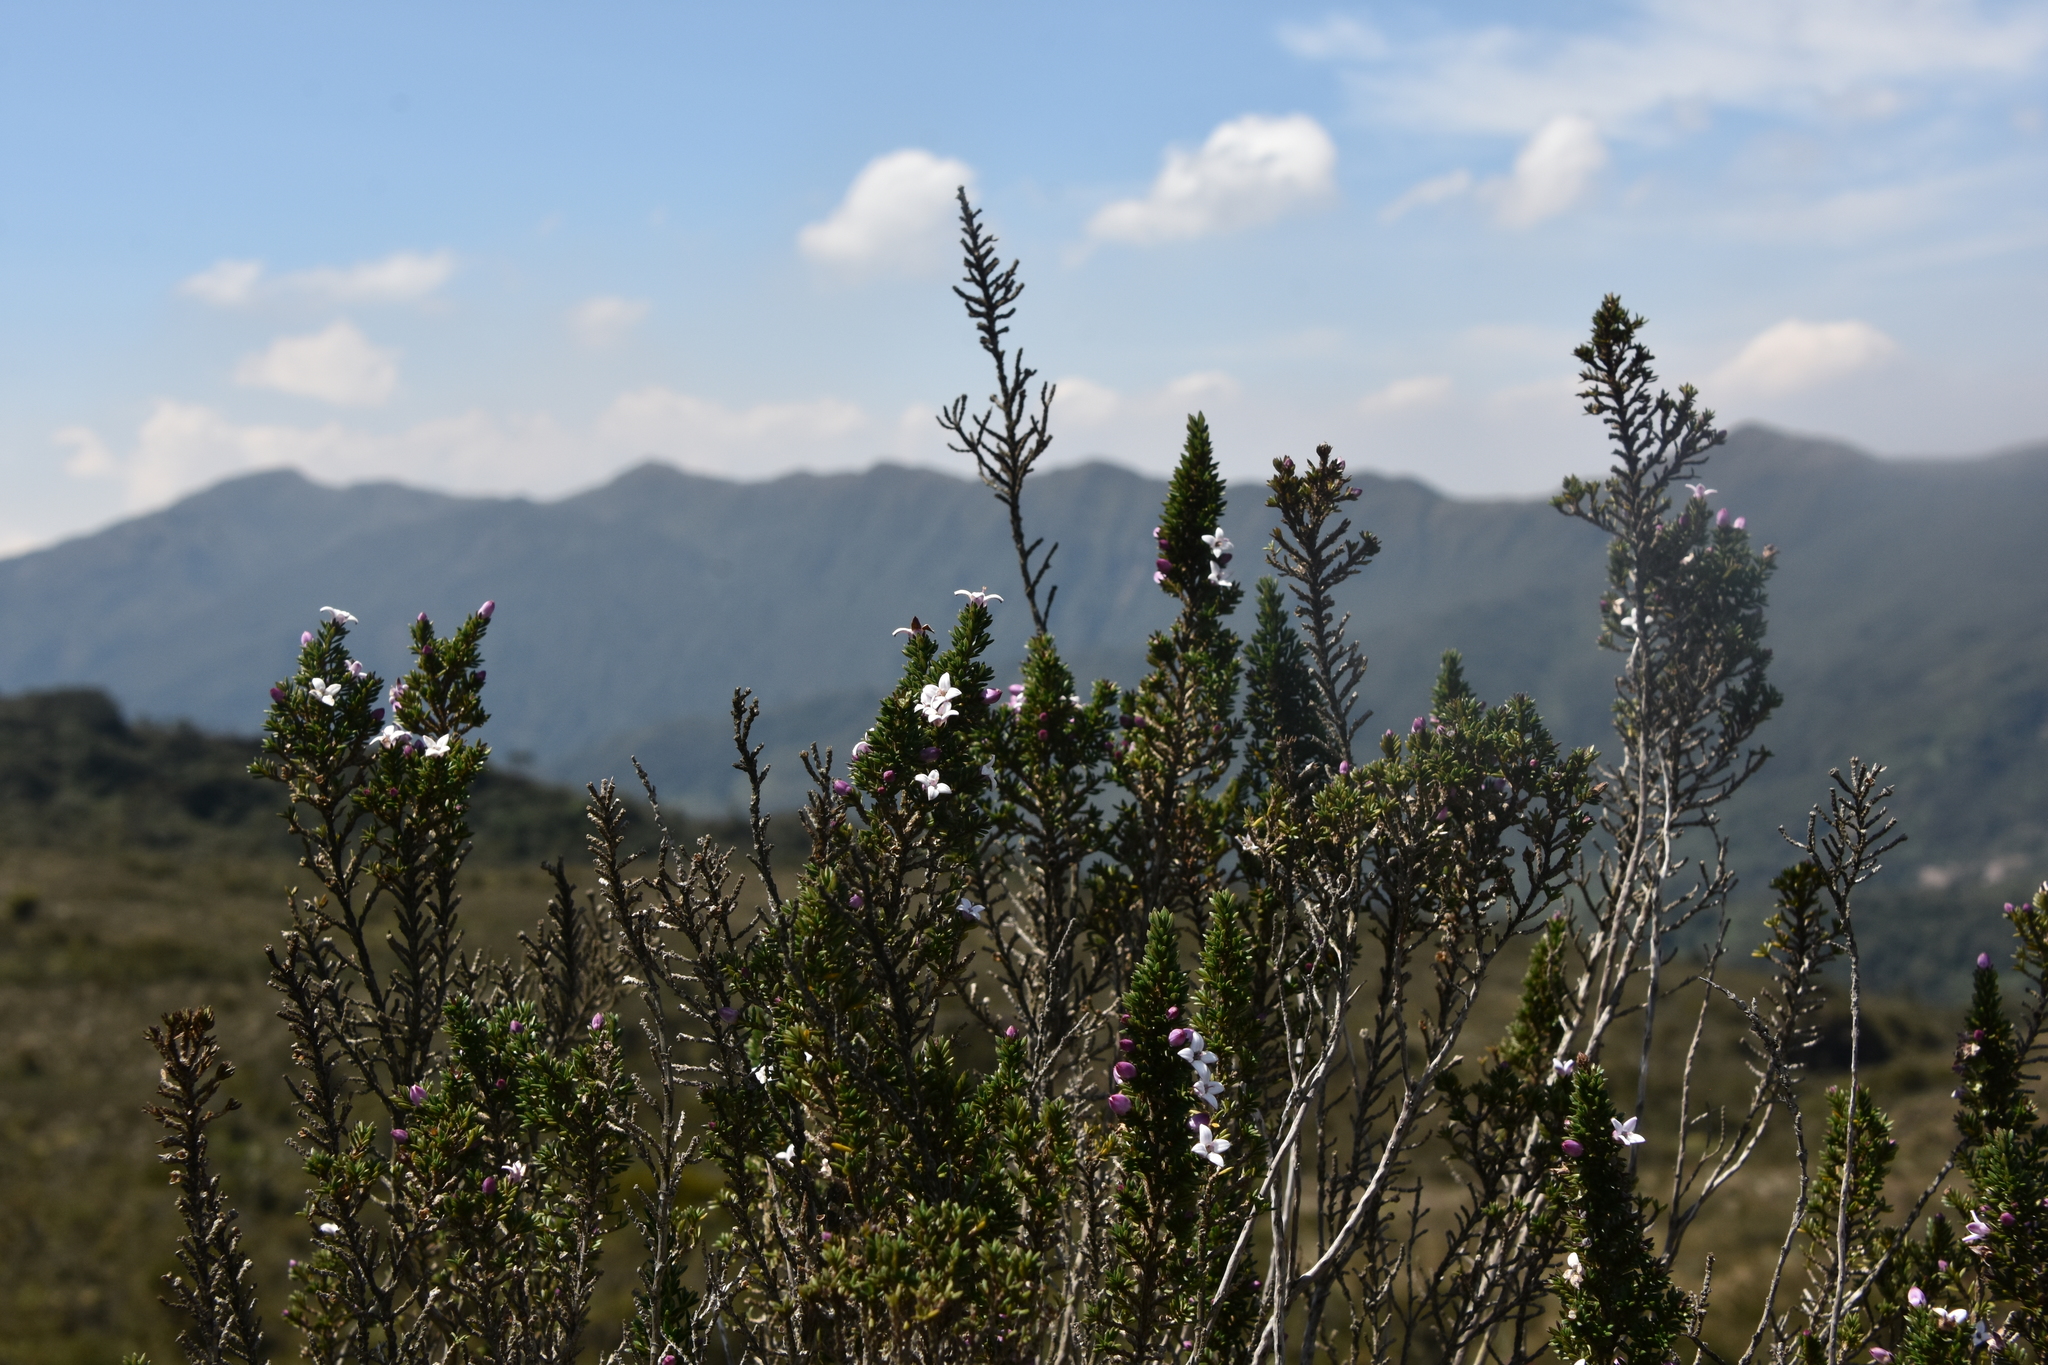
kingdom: Plantae
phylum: Tracheophyta
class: Magnoliopsida
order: Gentianales
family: Rubiaceae
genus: Arcytophyllum
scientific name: Arcytophyllum nitidum
